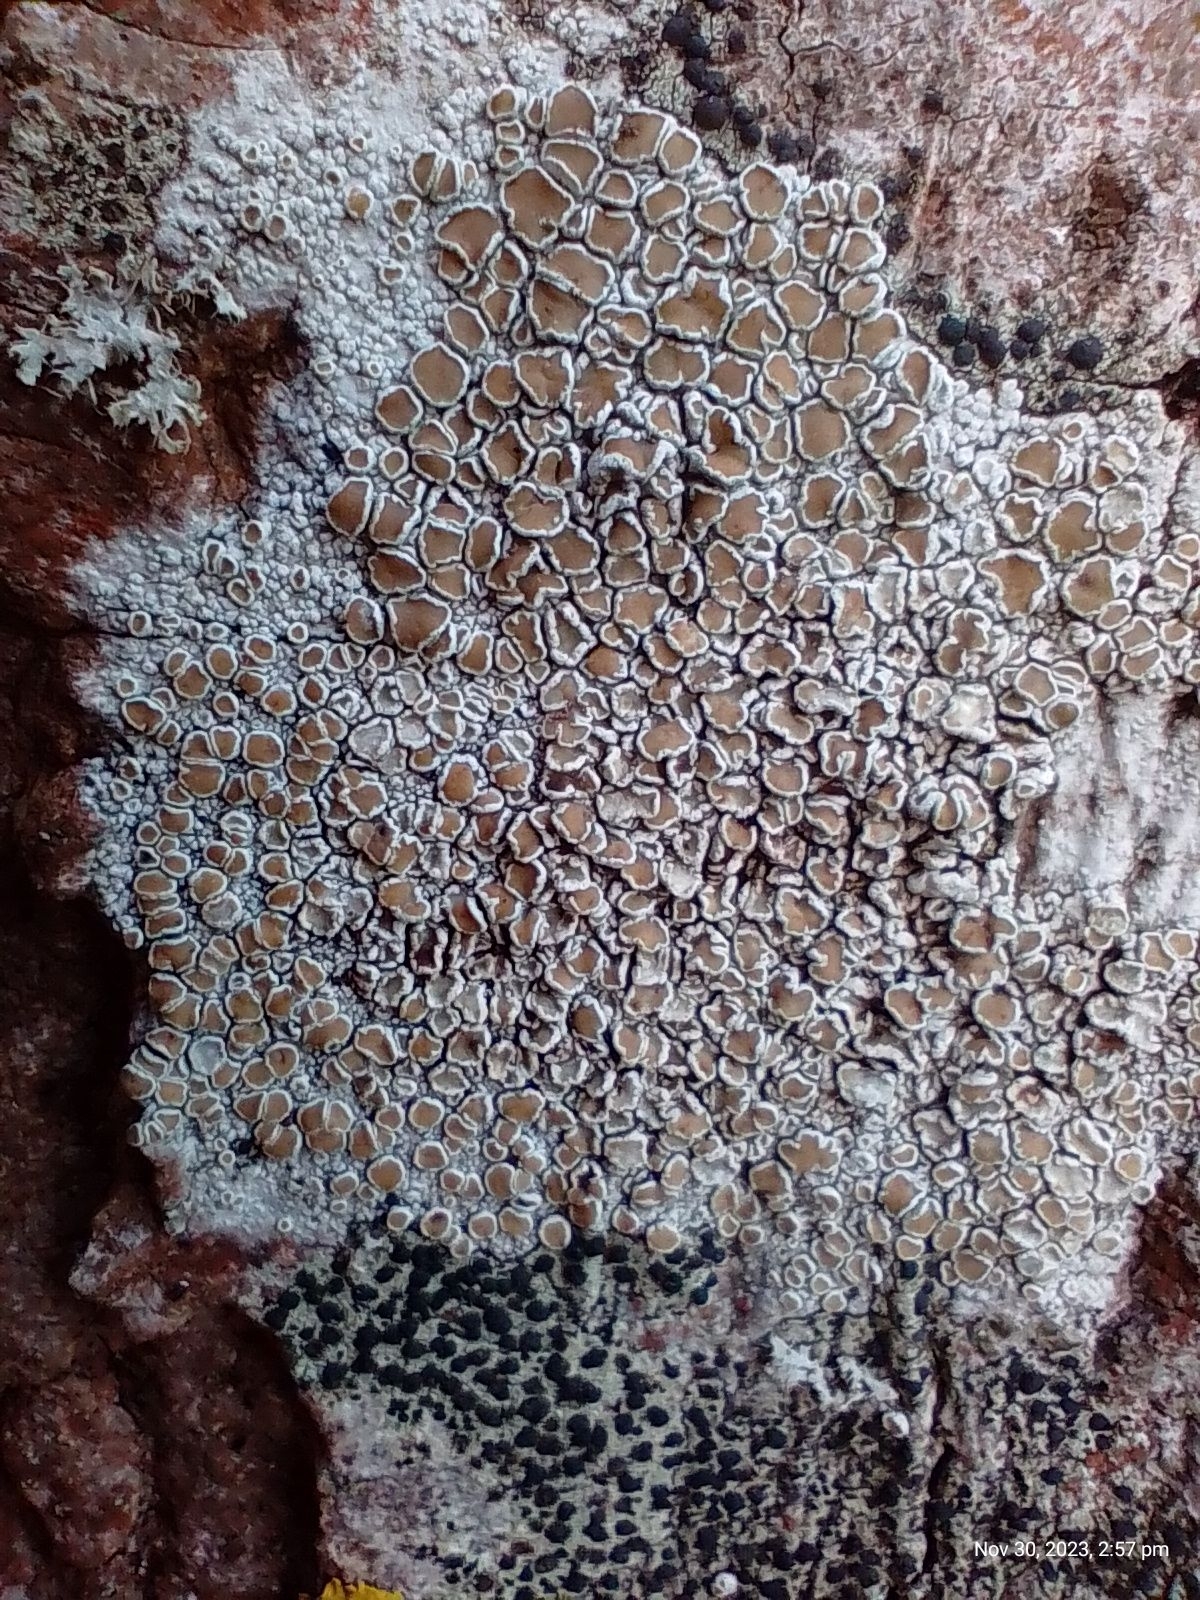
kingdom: Fungi
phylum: Ascomycota
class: Lecanoromycetes
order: Lecanorales
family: Lecanoraceae
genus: Lecanora
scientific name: Lecanora chlarotera
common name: Brown rim-lichen
